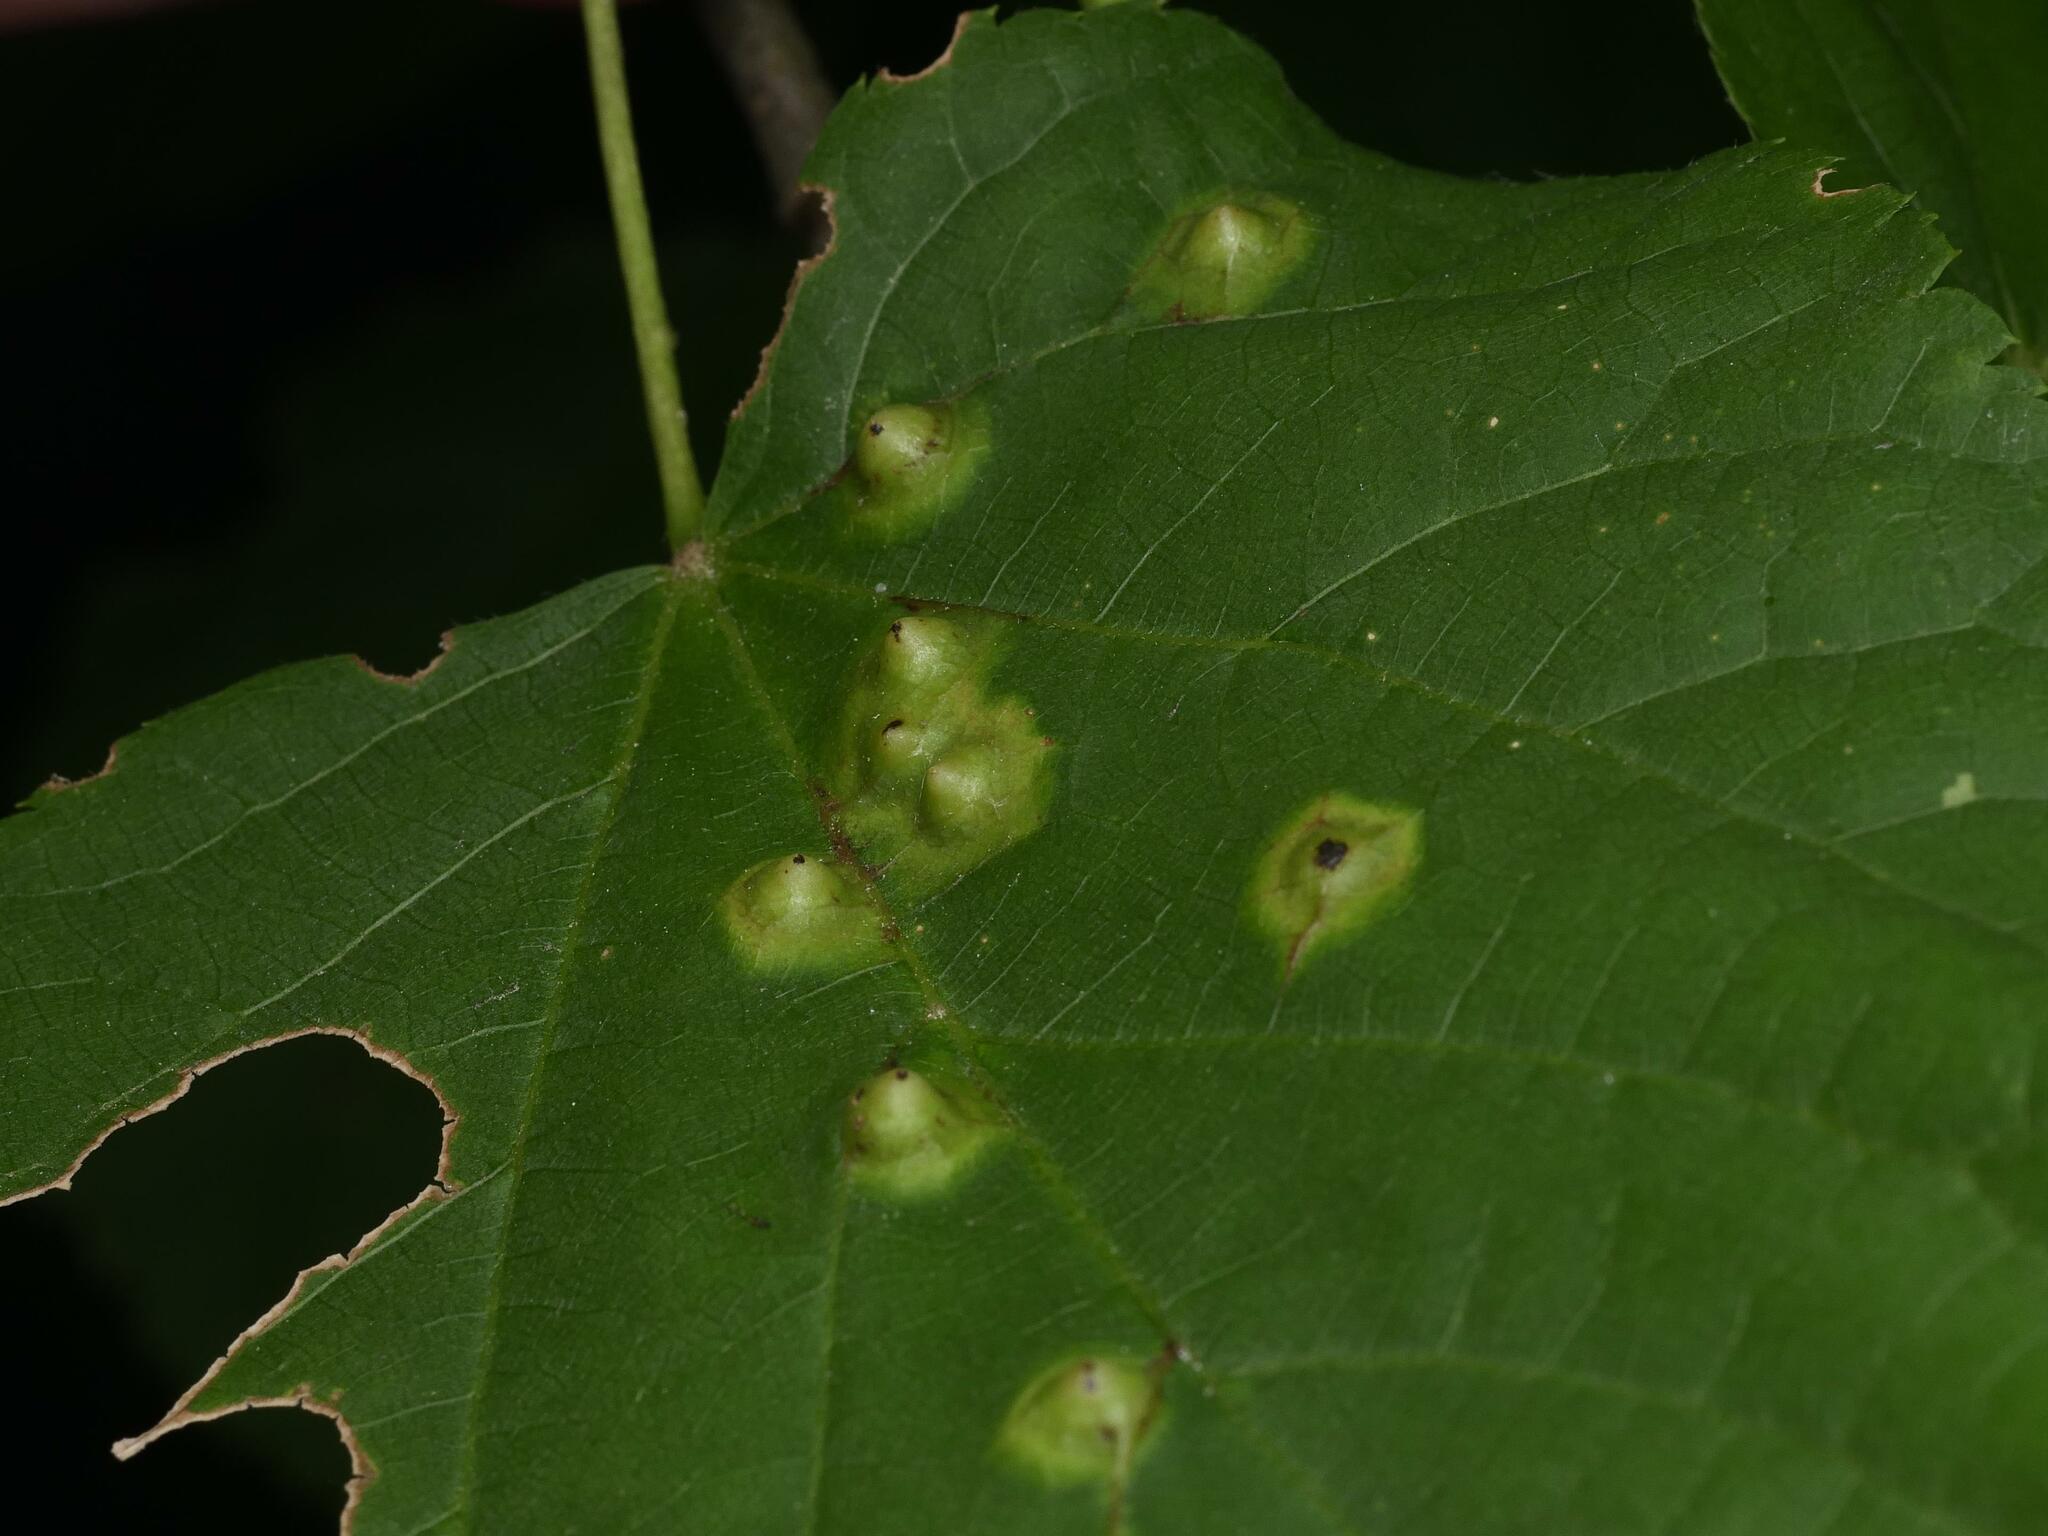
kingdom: Animalia
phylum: Arthropoda
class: Insecta
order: Diptera
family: Cecidomyiidae
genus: Didymomyia
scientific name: Didymomyia tiliacea
